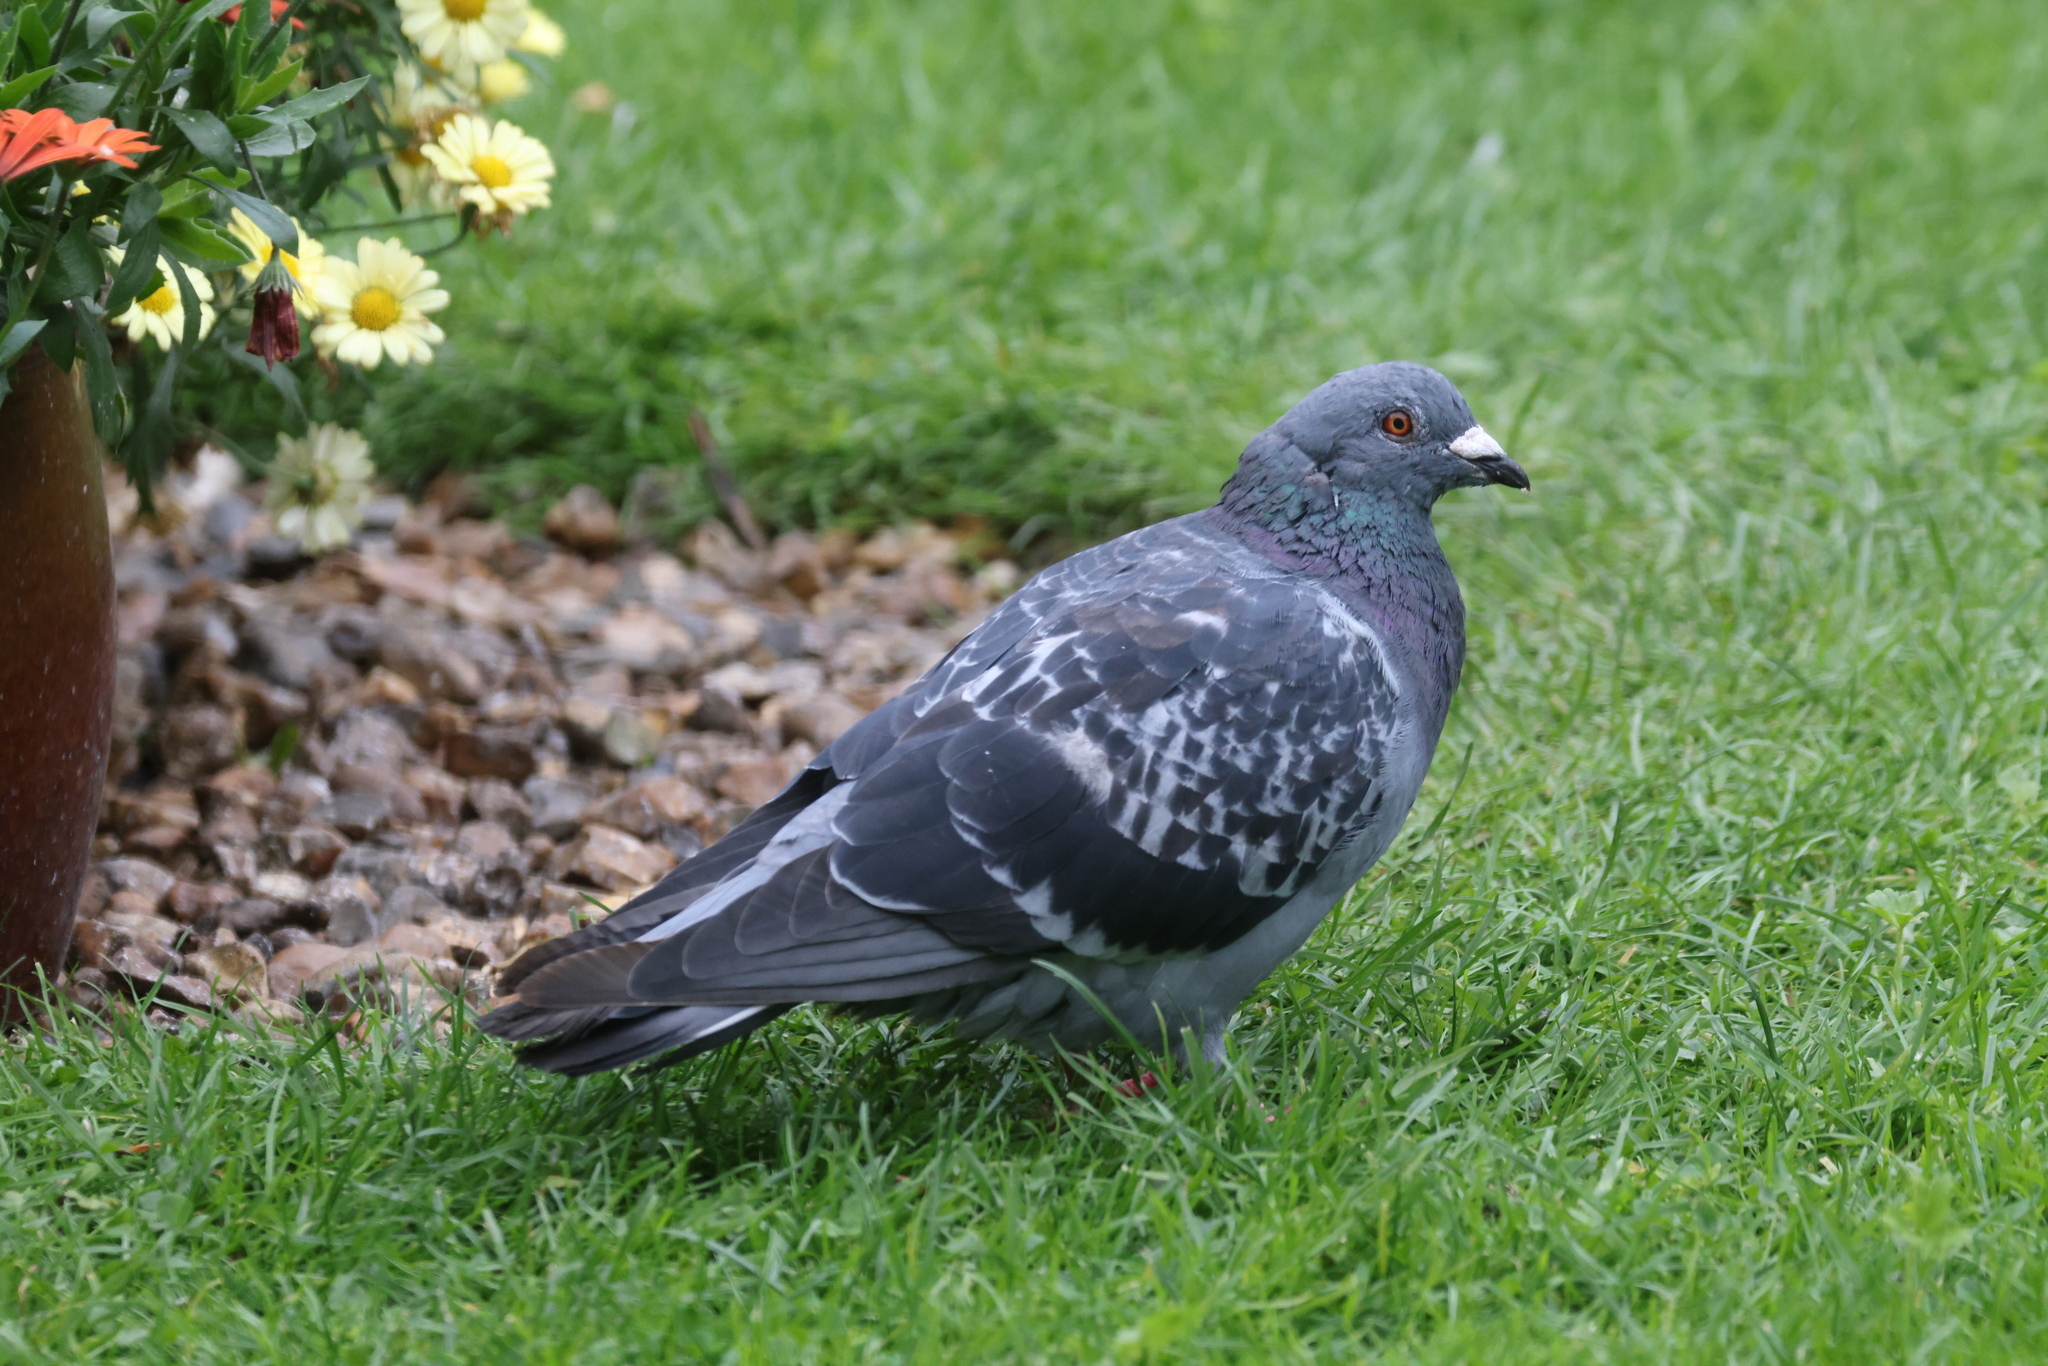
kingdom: Animalia
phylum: Chordata
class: Aves
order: Columbiformes
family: Columbidae
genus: Columba
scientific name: Columba livia
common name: Rock pigeon
